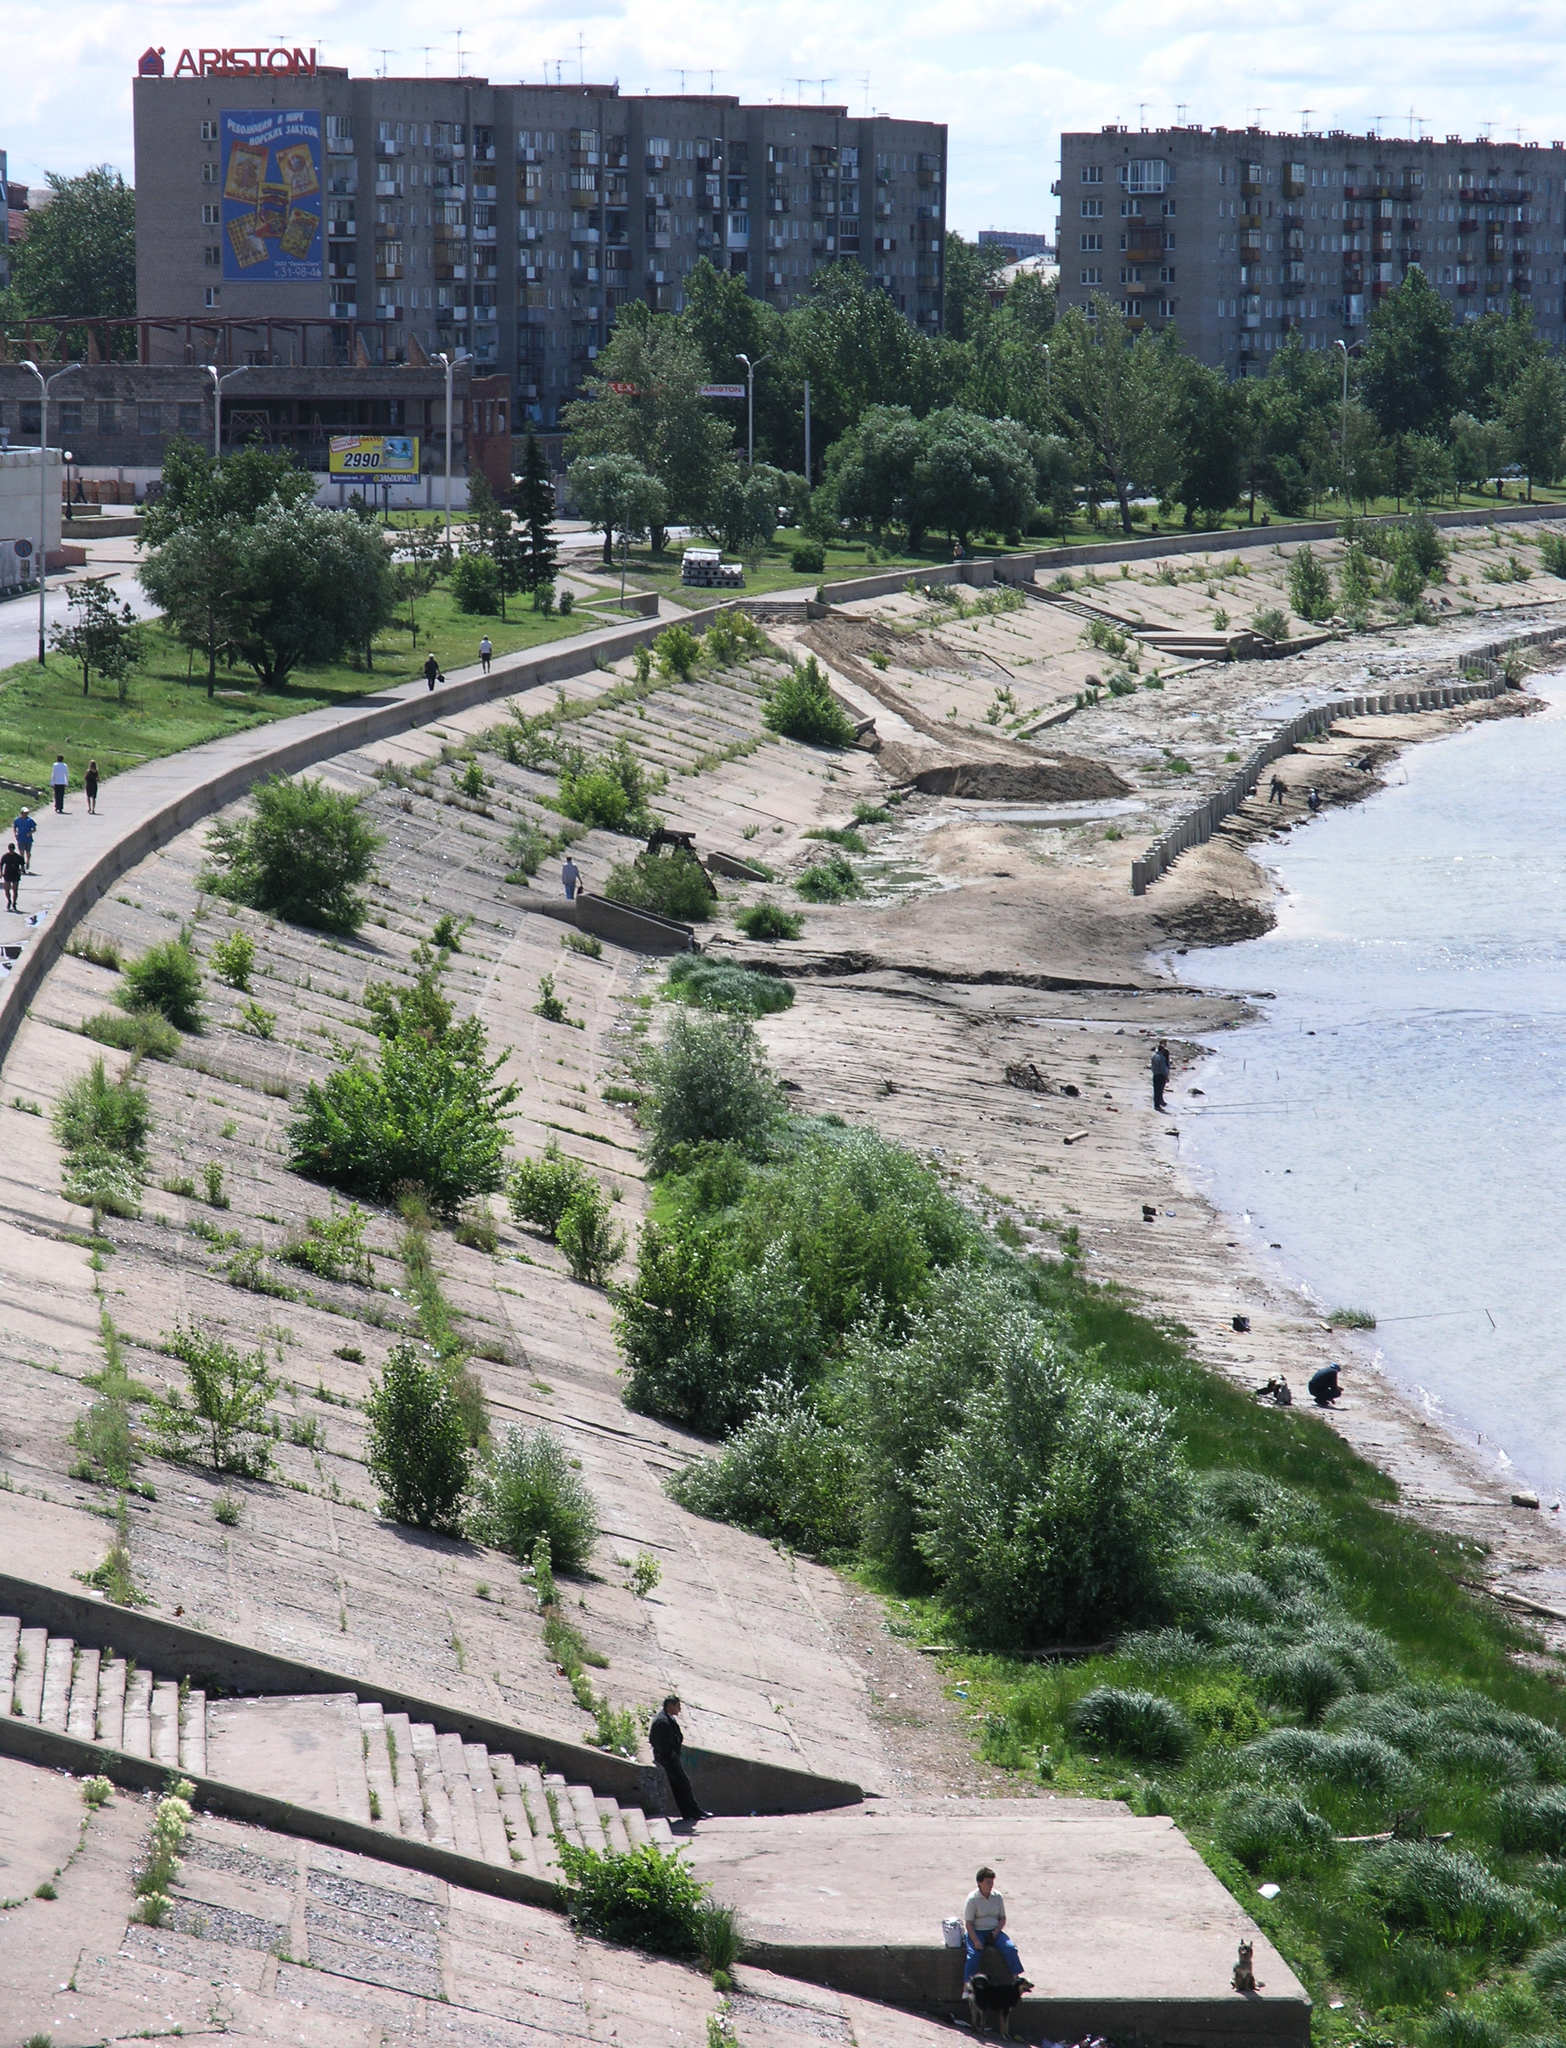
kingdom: Plantae
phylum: Tracheophyta
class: Magnoliopsida
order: Malpighiales
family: Salicaceae
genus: Salix
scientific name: Salix alba
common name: White willow
